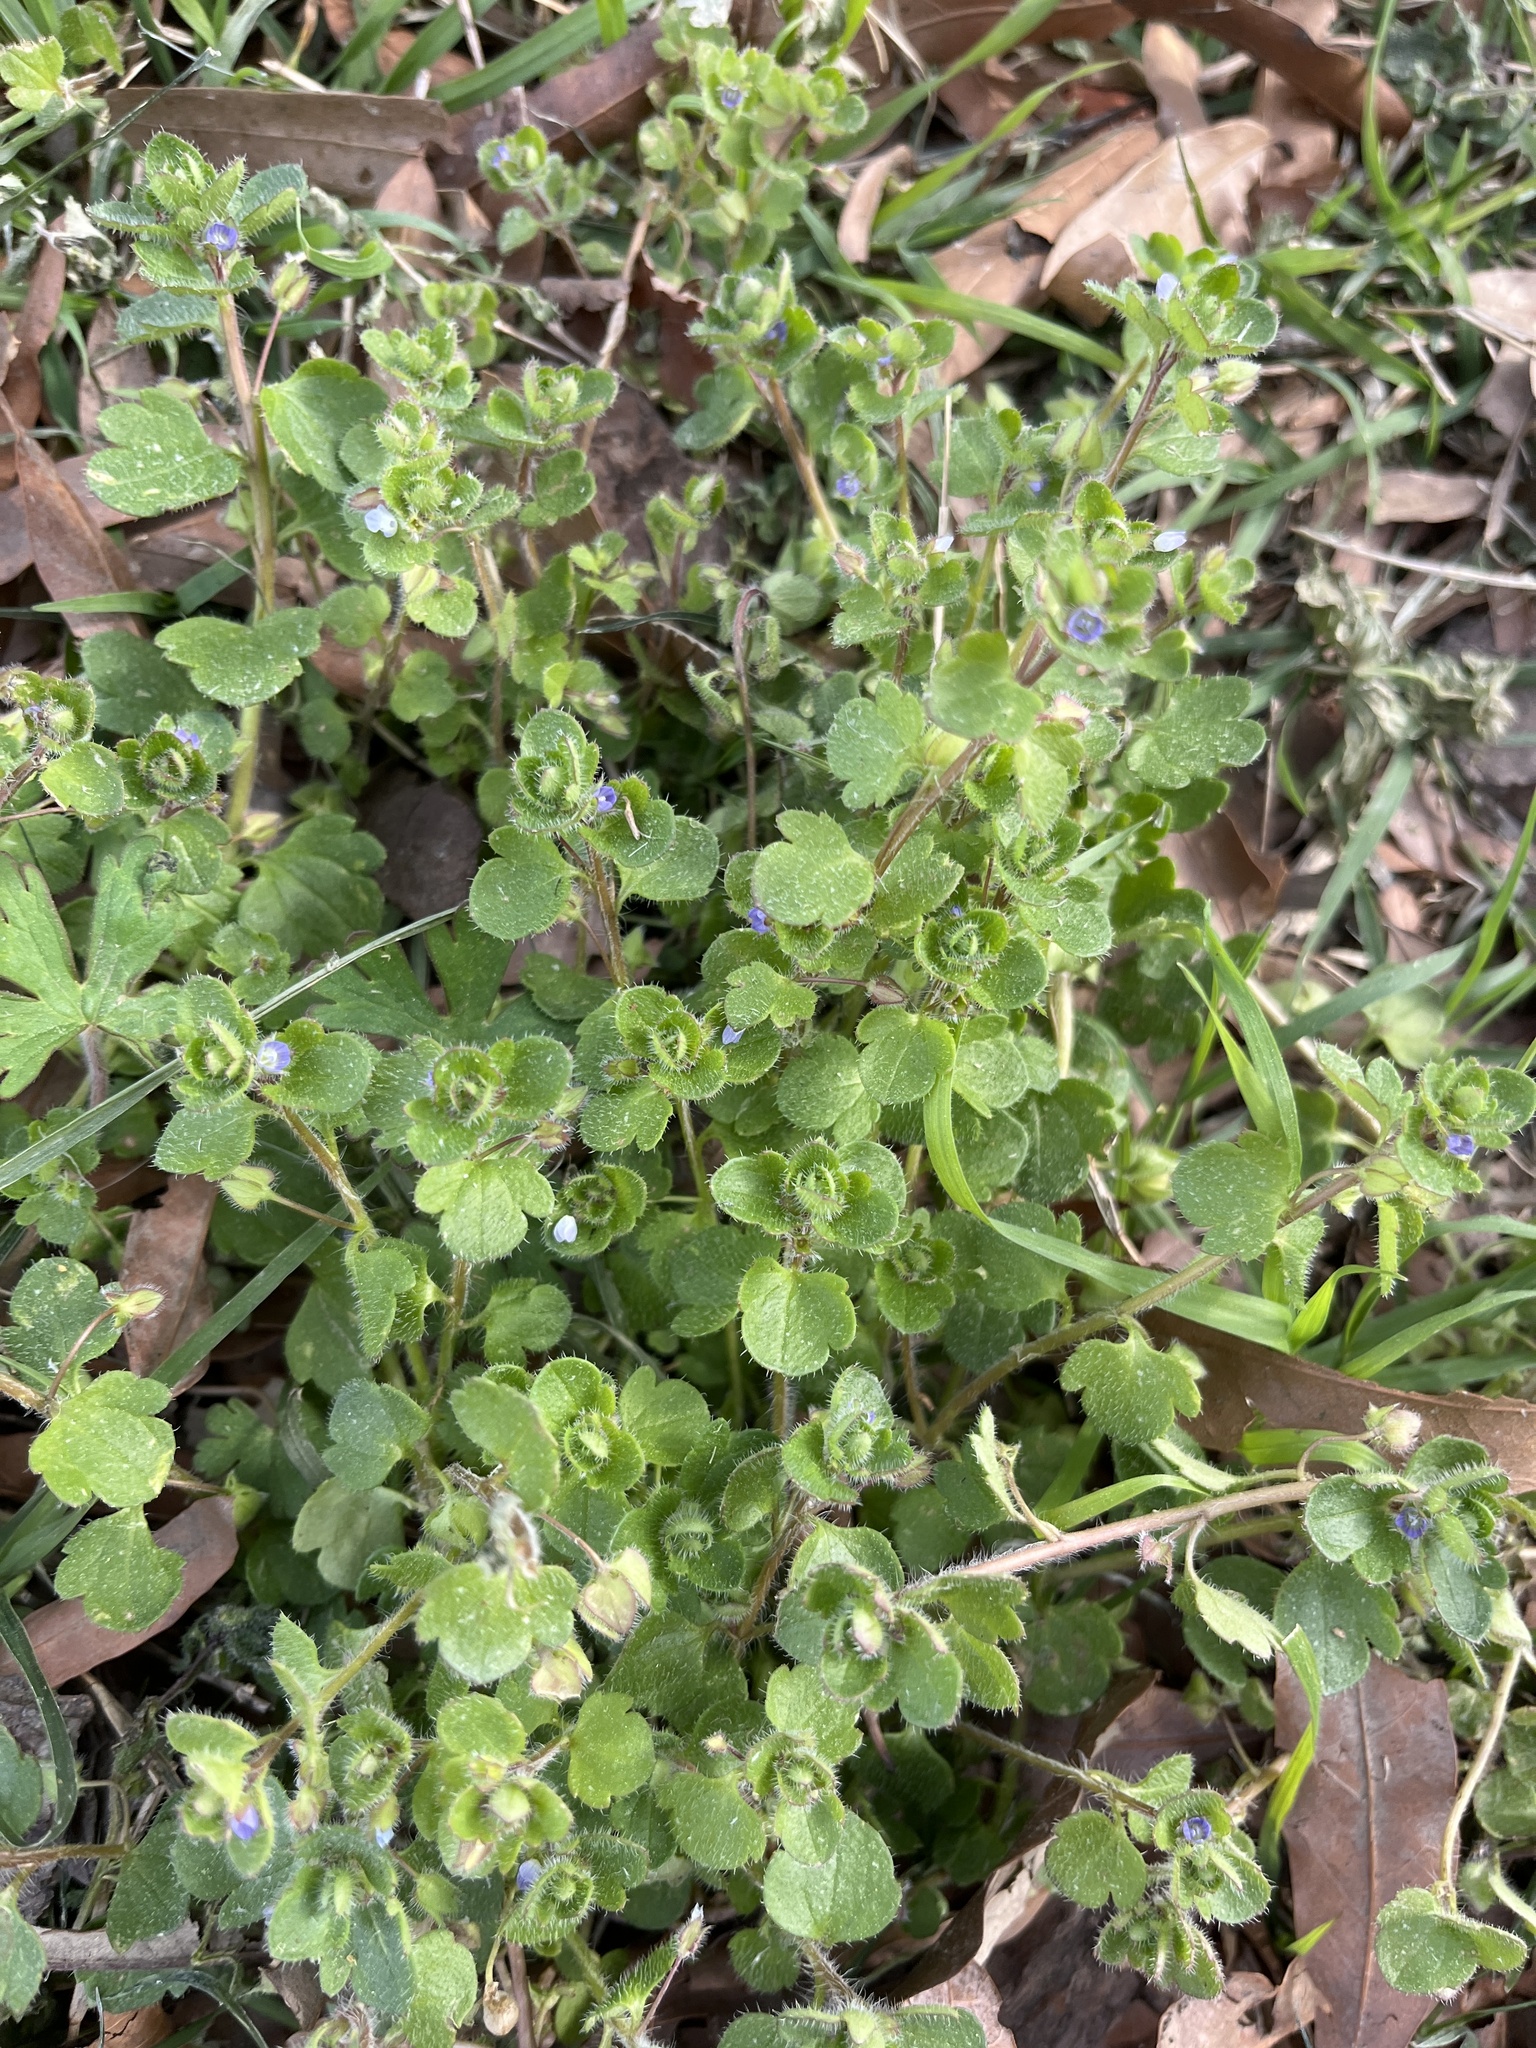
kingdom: Plantae
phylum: Tracheophyta
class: Magnoliopsida
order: Lamiales
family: Plantaginaceae
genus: Veronica
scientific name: Veronica hederifolia
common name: Ivy-leaved speedwell
